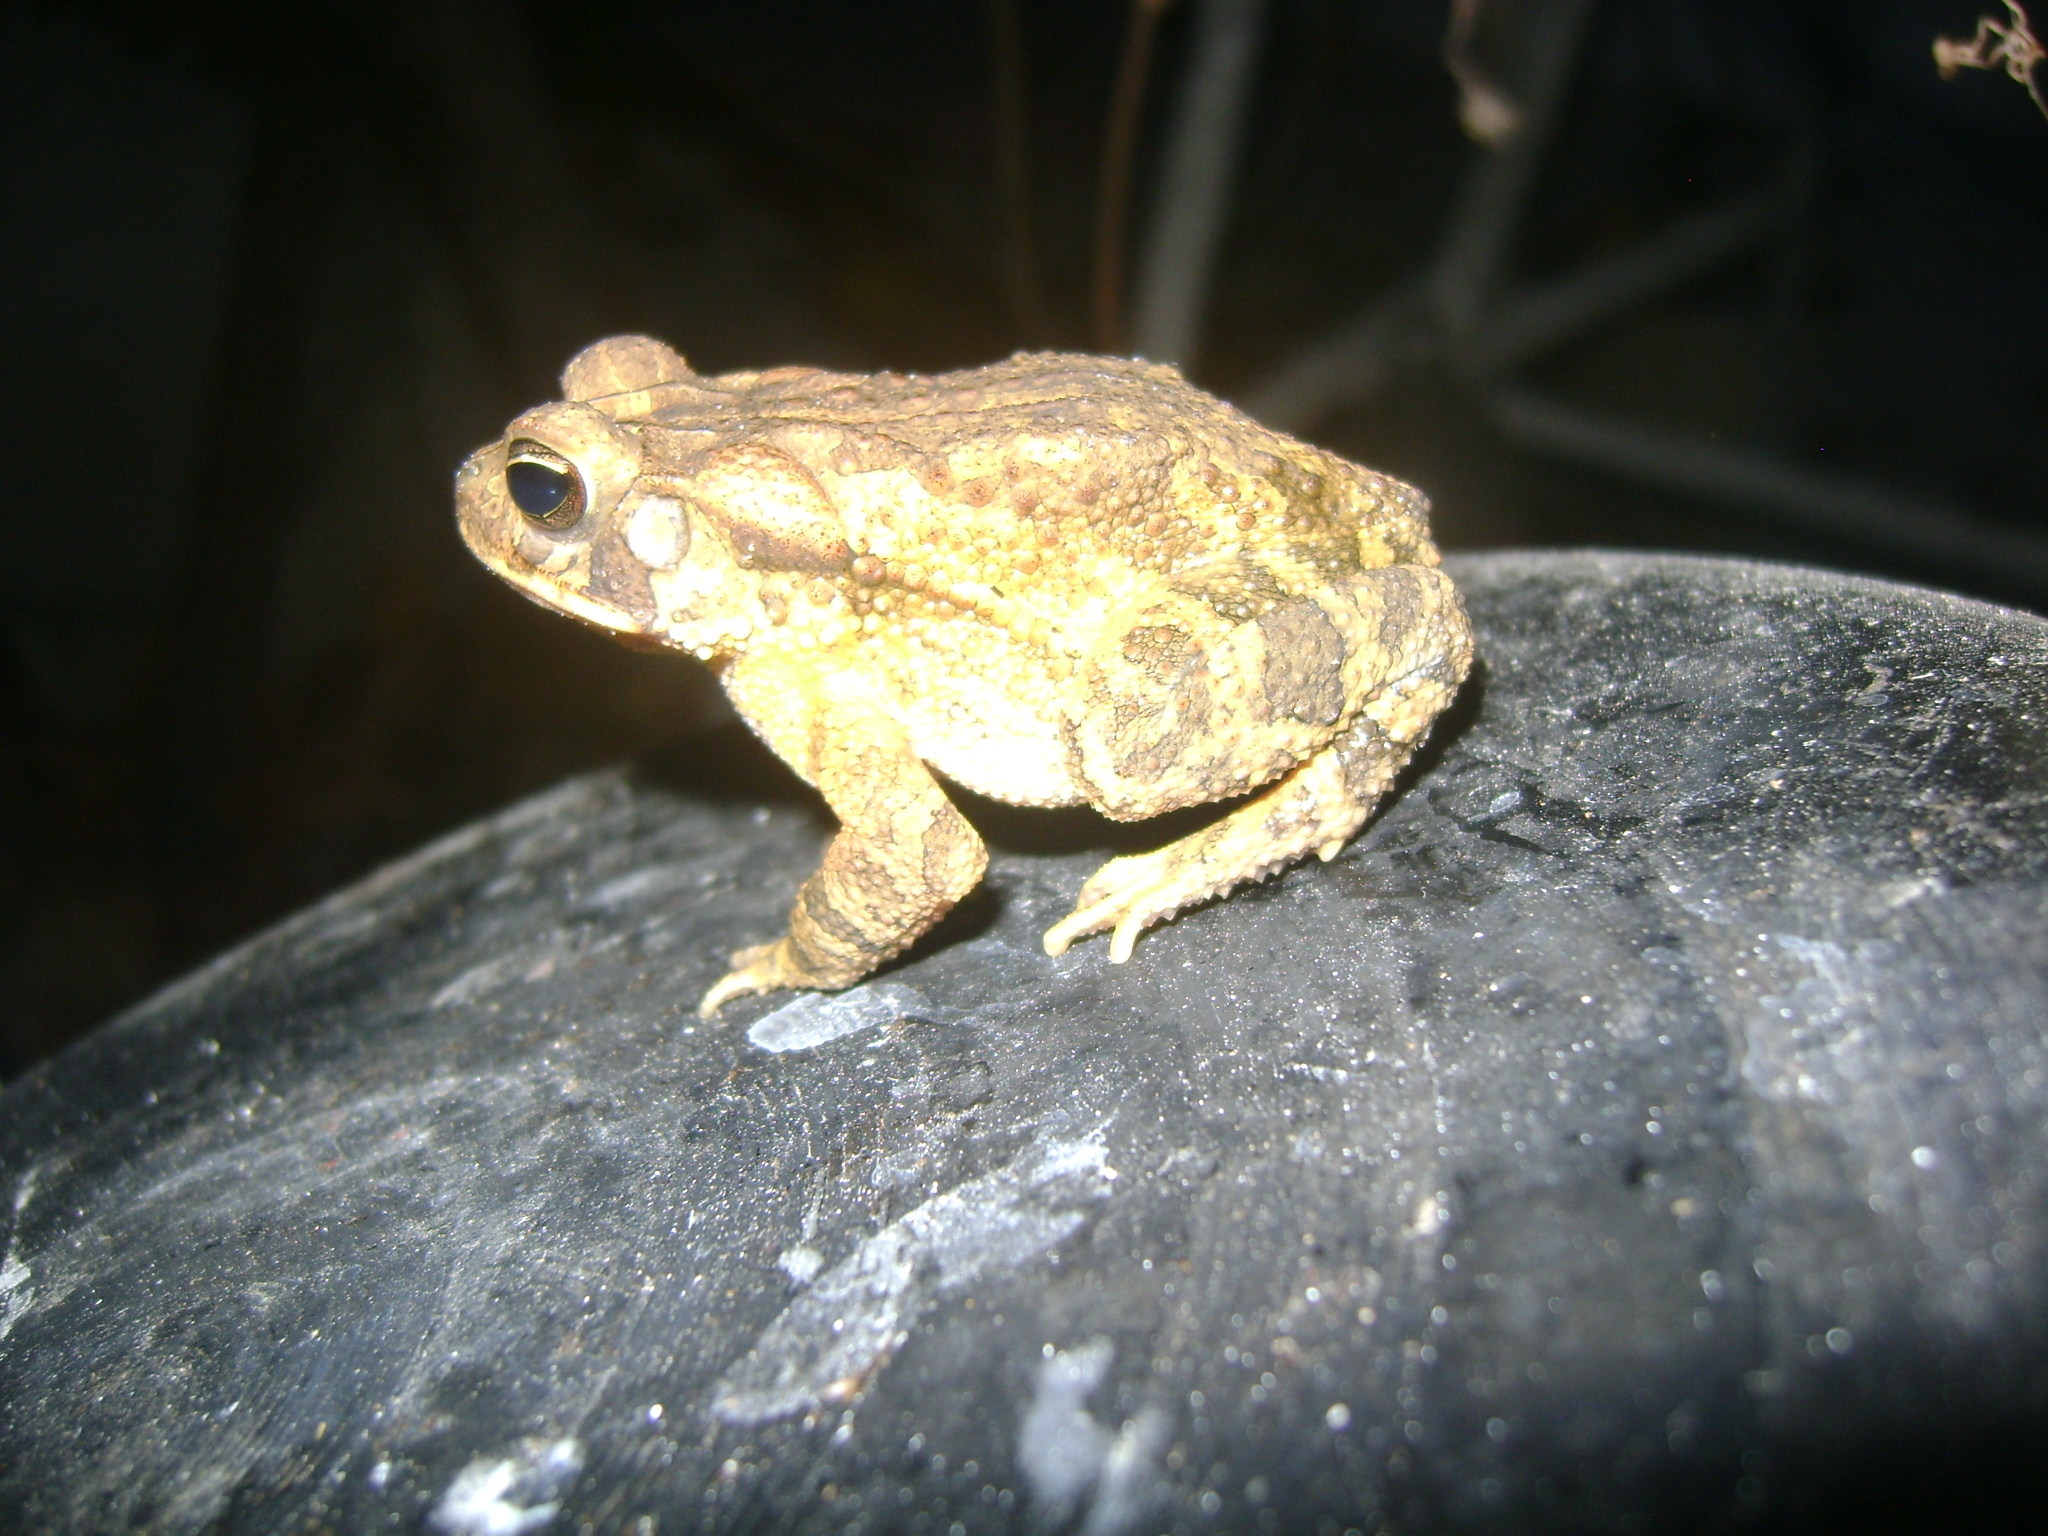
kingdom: Animalia
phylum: Chordata
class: Amphibia
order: Anura
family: Bufonidae
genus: Incilius
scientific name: Incilius valliceps
